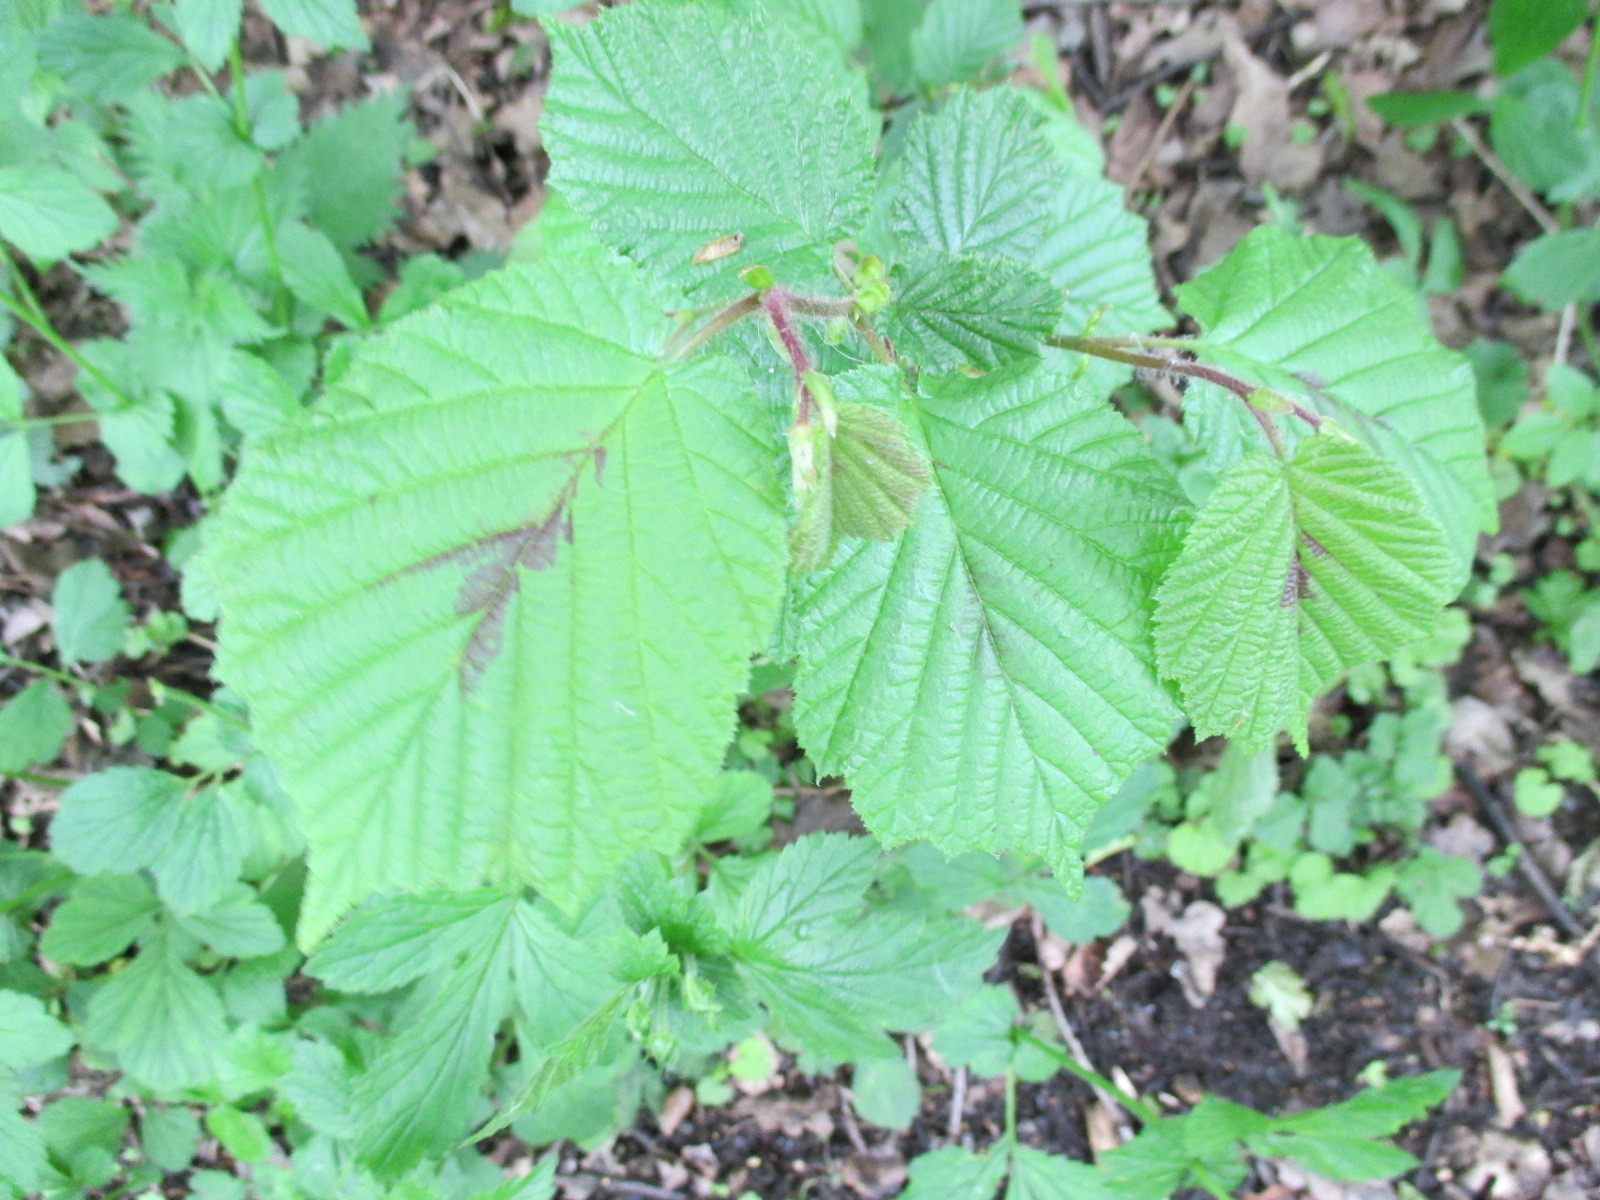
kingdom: Plantae
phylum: Tracheophyta
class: Magnoliopsida
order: Fagales
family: Betulaceae
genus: Corylus
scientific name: Corylus avellana
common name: European hazel
